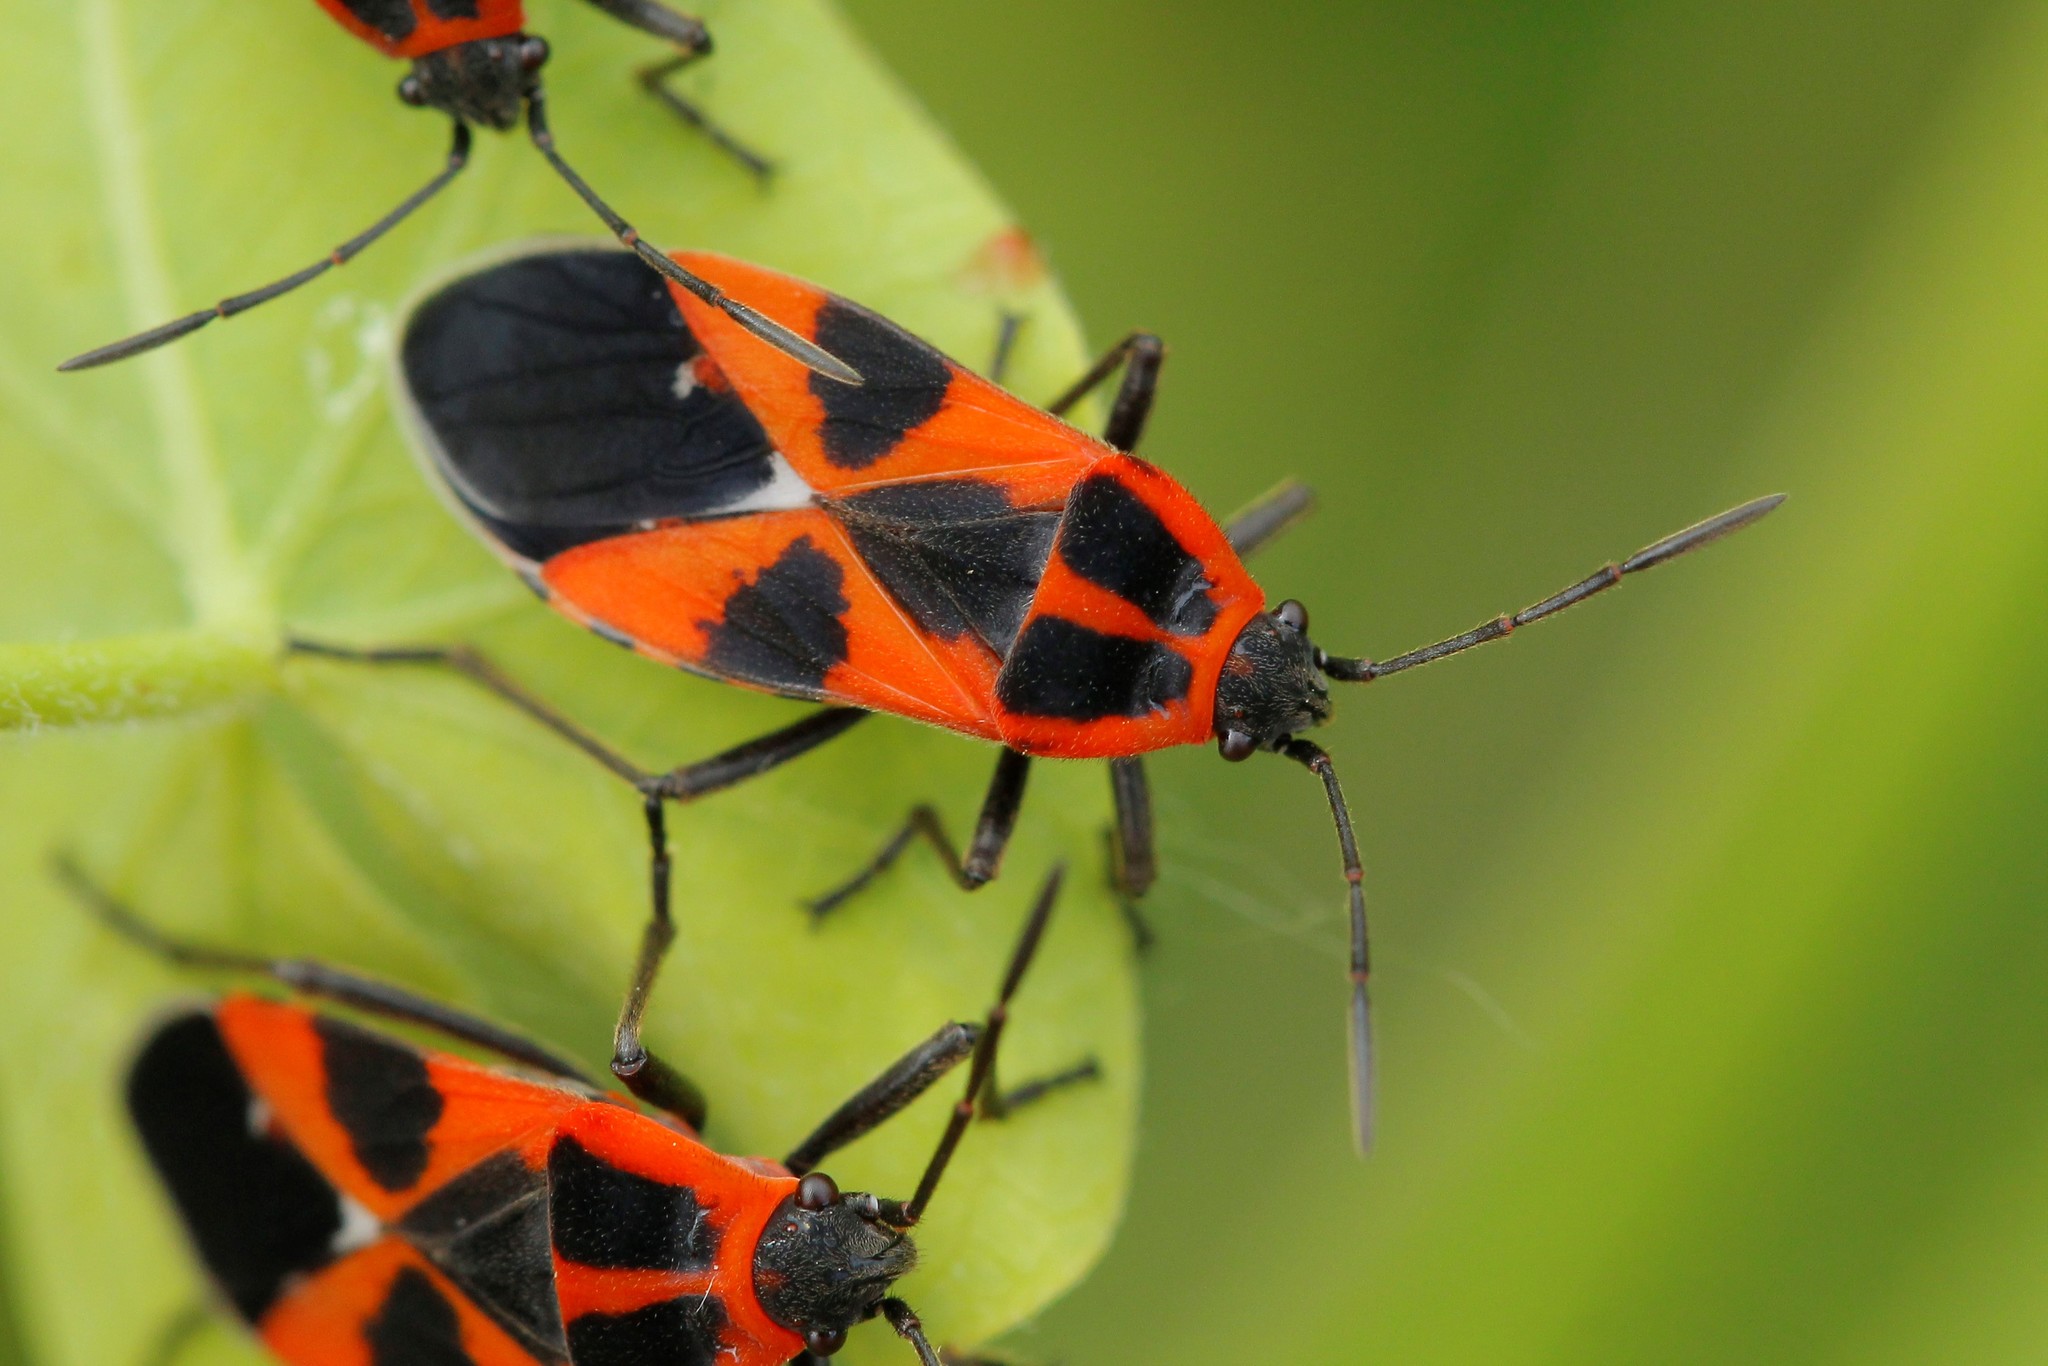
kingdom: Animalia
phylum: Arthropoda
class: Insecta
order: Hemiptera
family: Lygaeidae
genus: Tropidothorax
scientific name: Tropidothorax leucopterus
